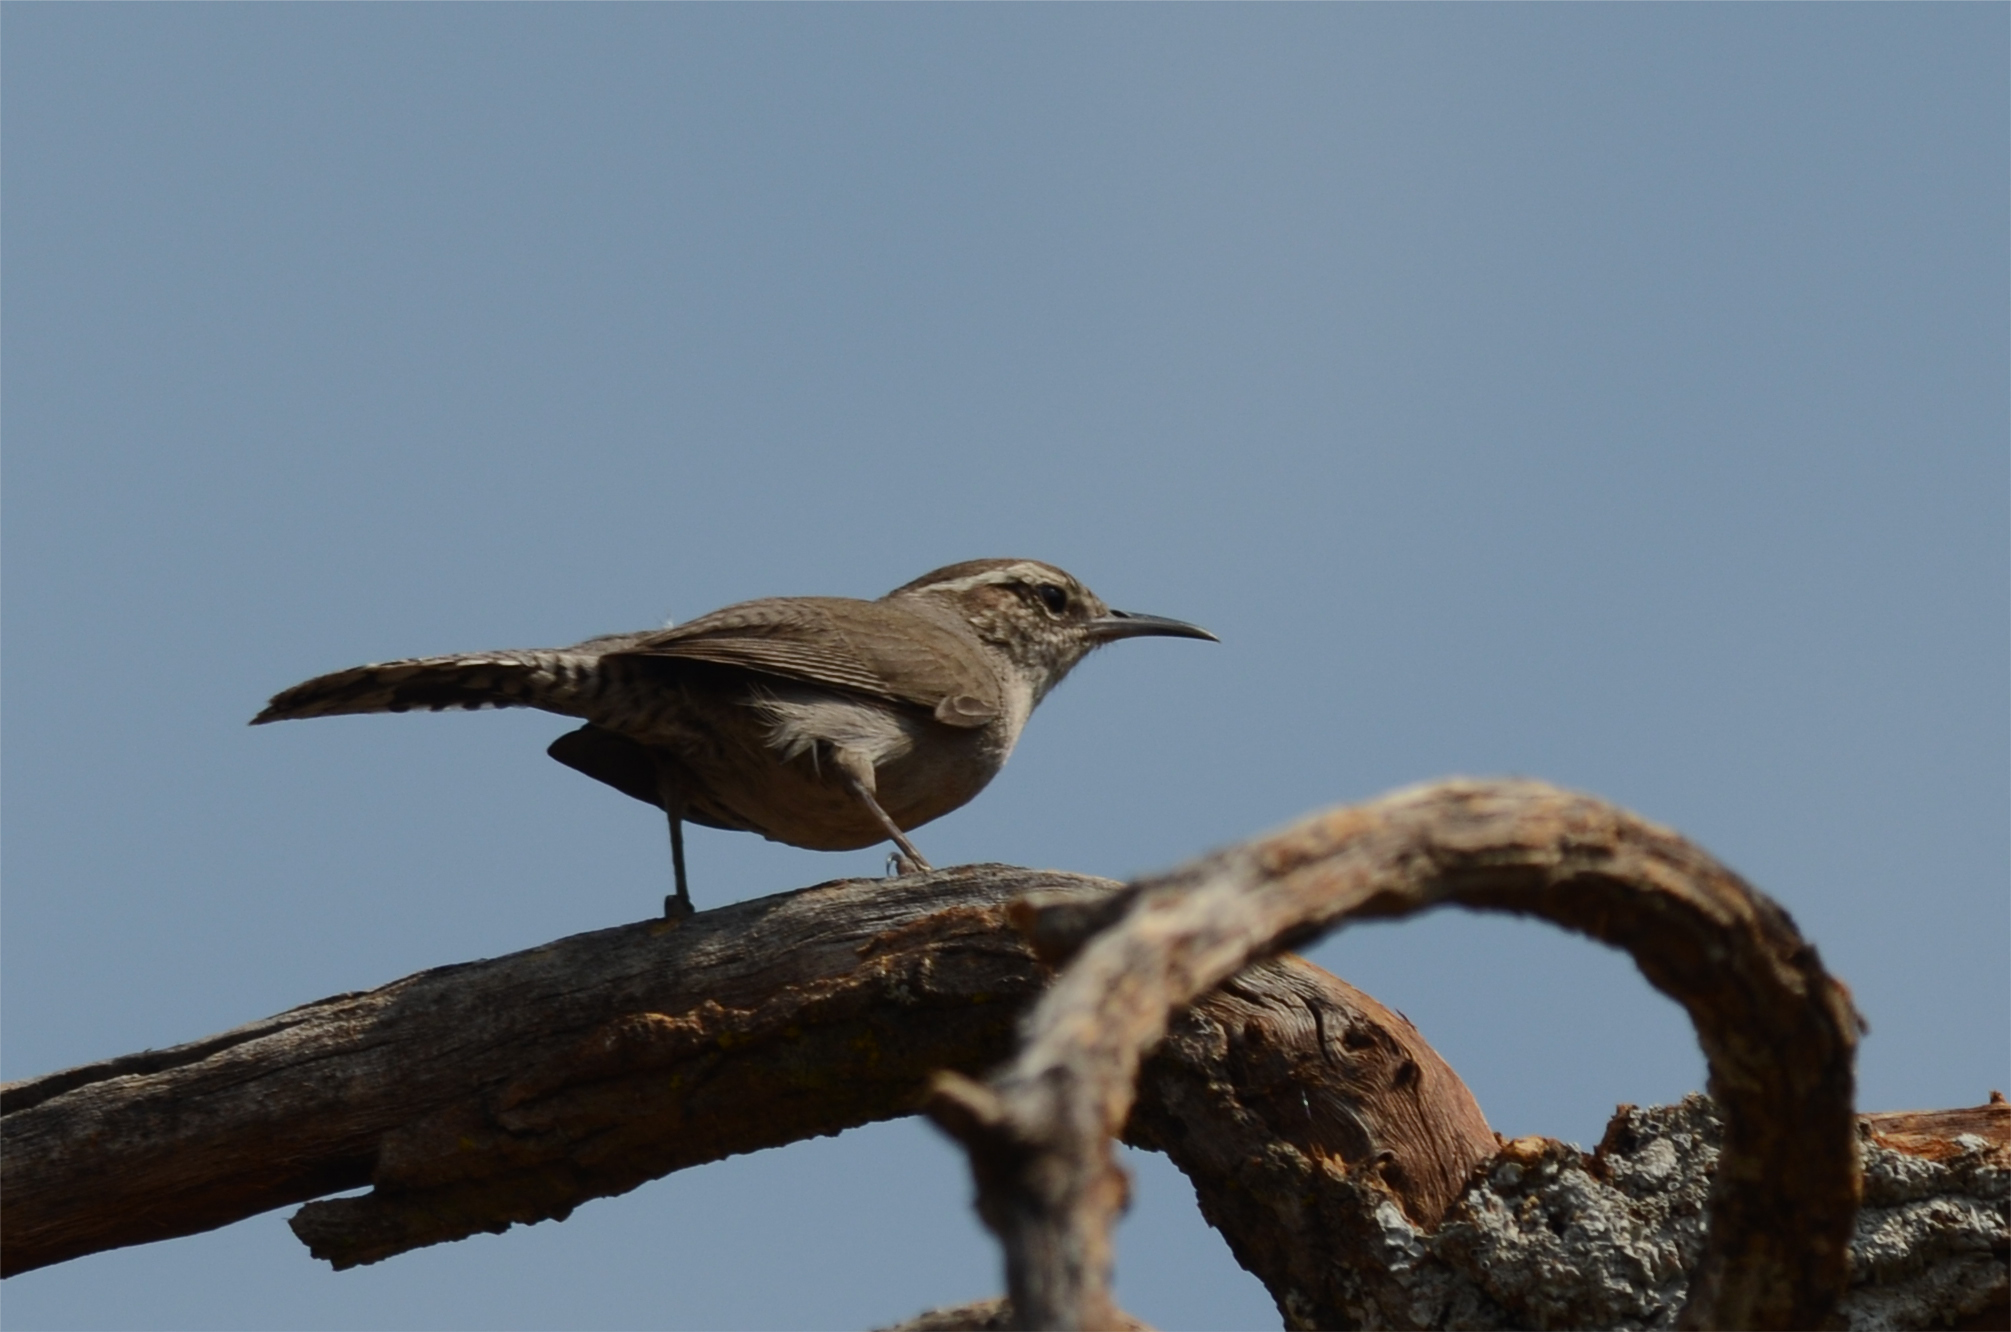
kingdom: Animalia
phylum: Chordata
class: Aves
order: Passeriformes
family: Troglodytidae
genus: Thryomanes
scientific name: Thryomanes bewickii
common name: Bewick's wren
